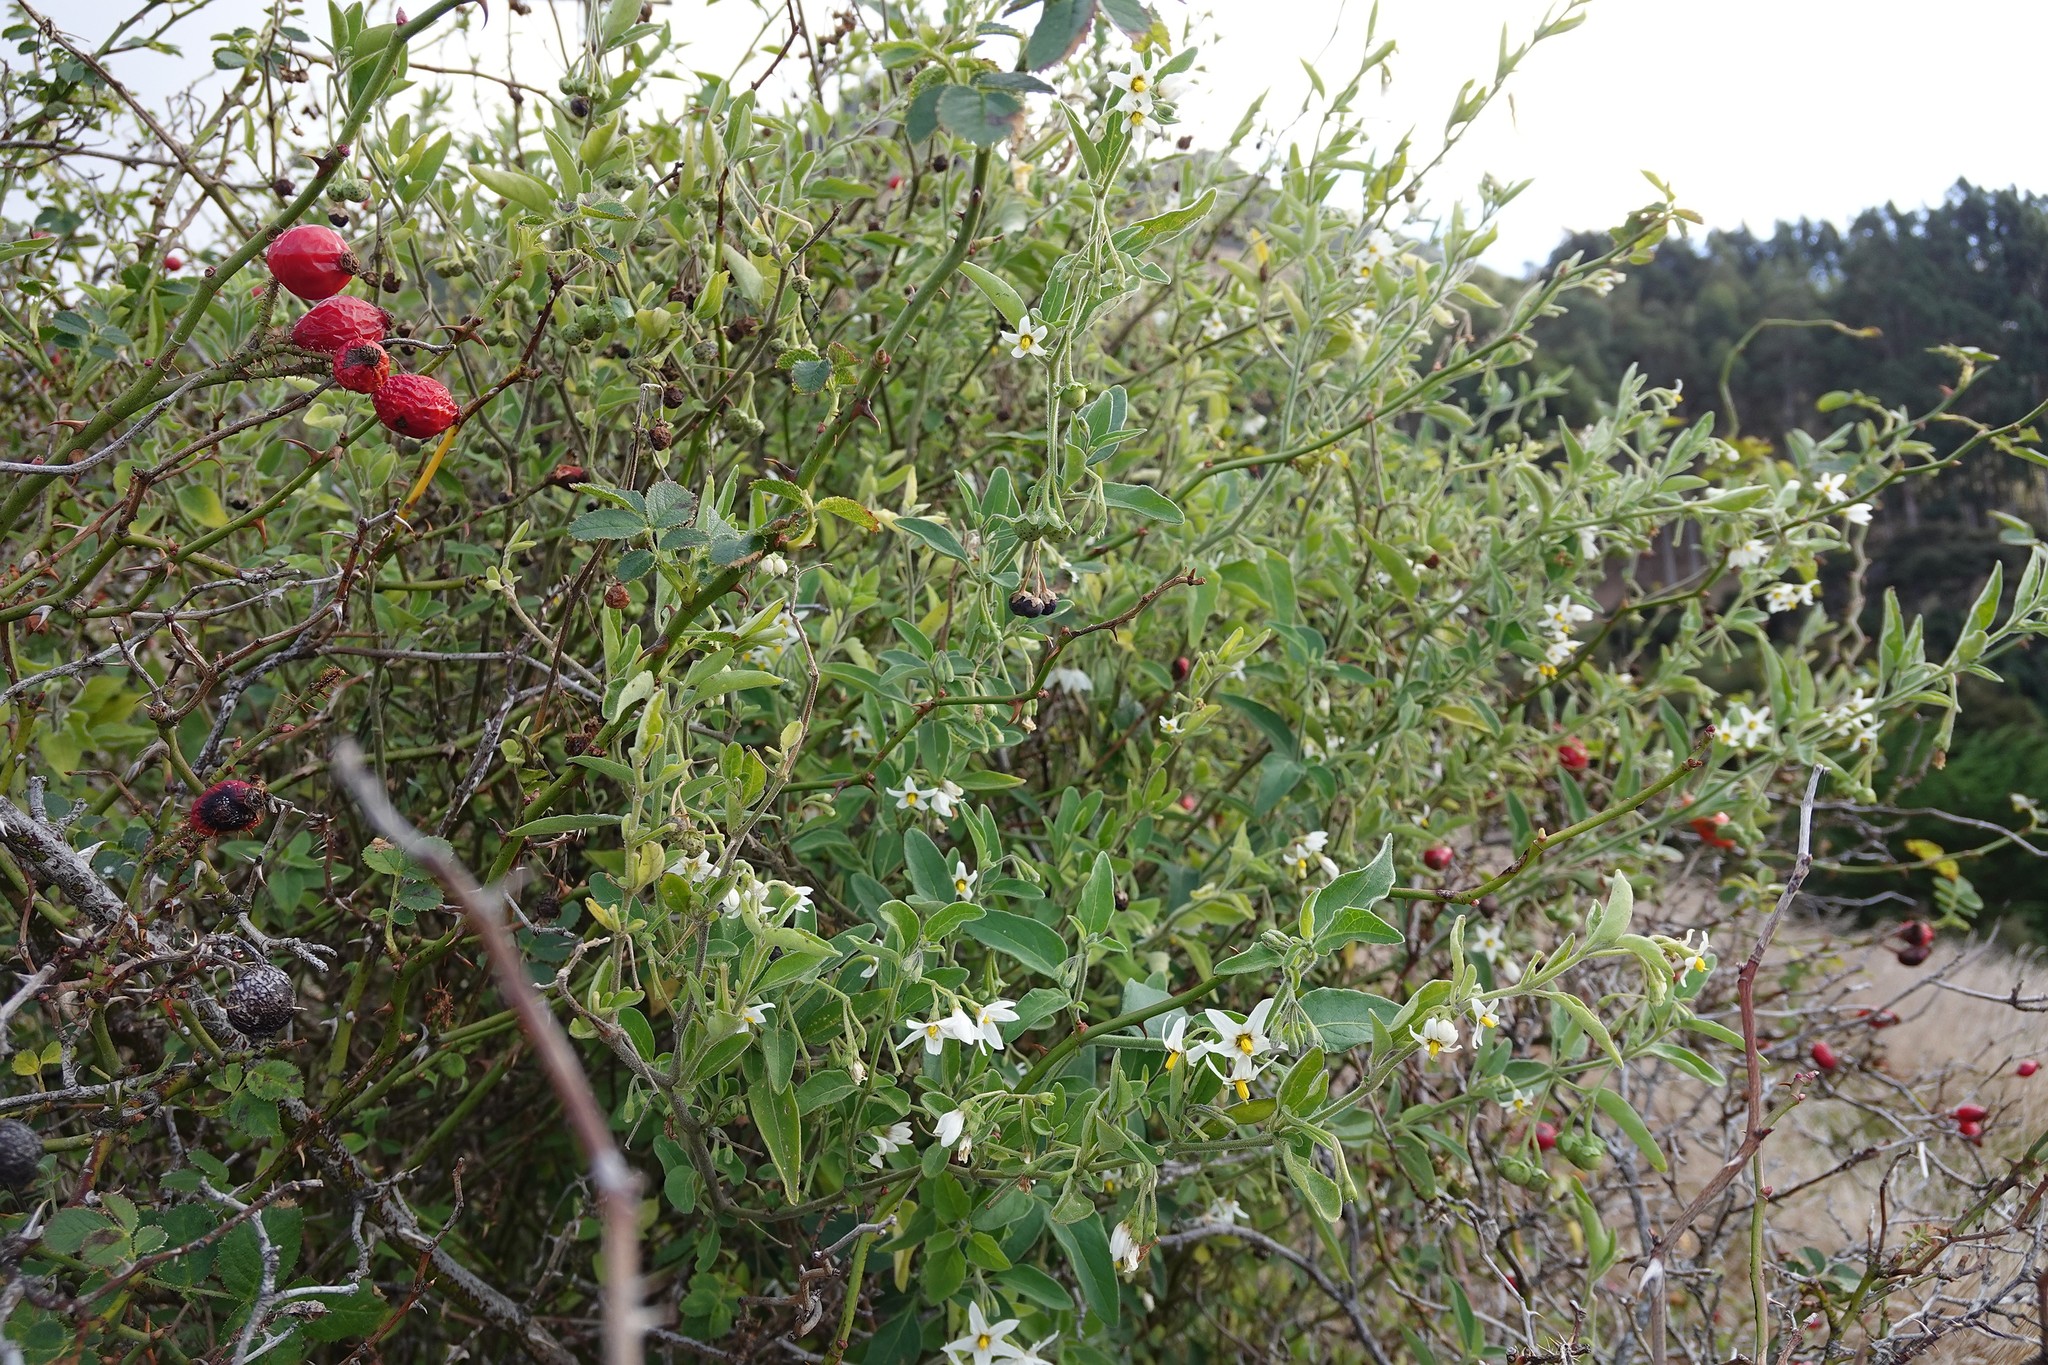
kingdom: Plantae
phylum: Tracheophyta
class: Magnoliopsida
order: Solanales
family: Solanaceae
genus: Solanum
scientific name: Solanum chenopodioides
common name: Tall nightshade
